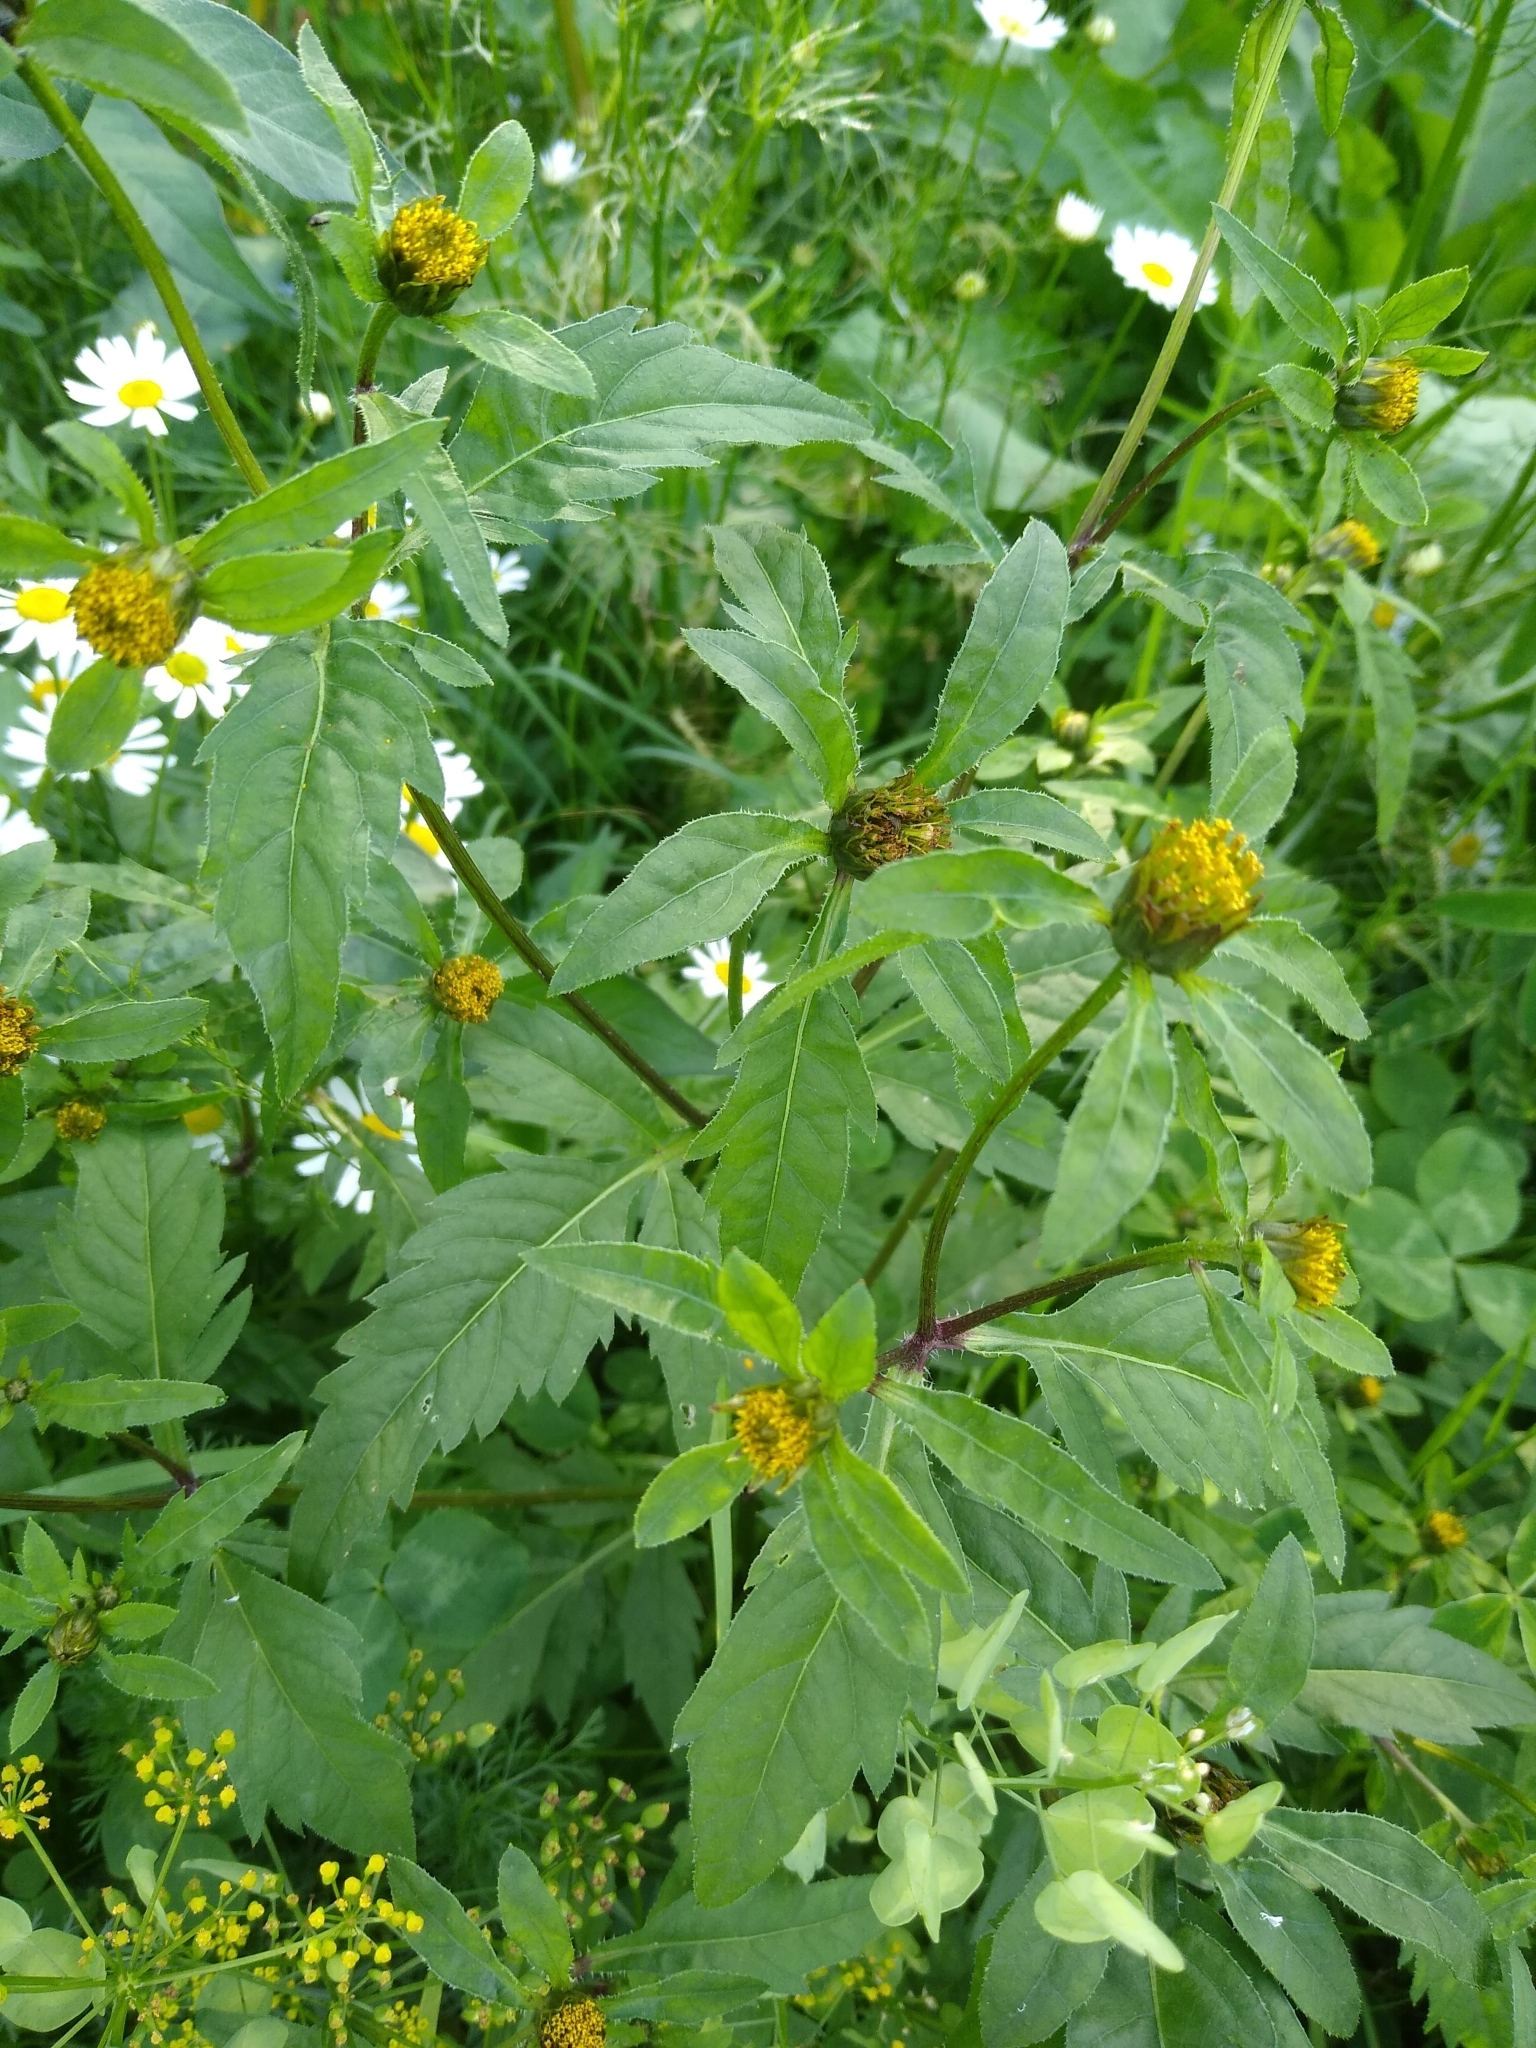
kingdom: Plantae
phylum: Tracheophyta
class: Magnoliopsida
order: Asterales
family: Asteraceae
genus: Bidens
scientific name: Bidens tripartita
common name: Trifid bur-marigold
